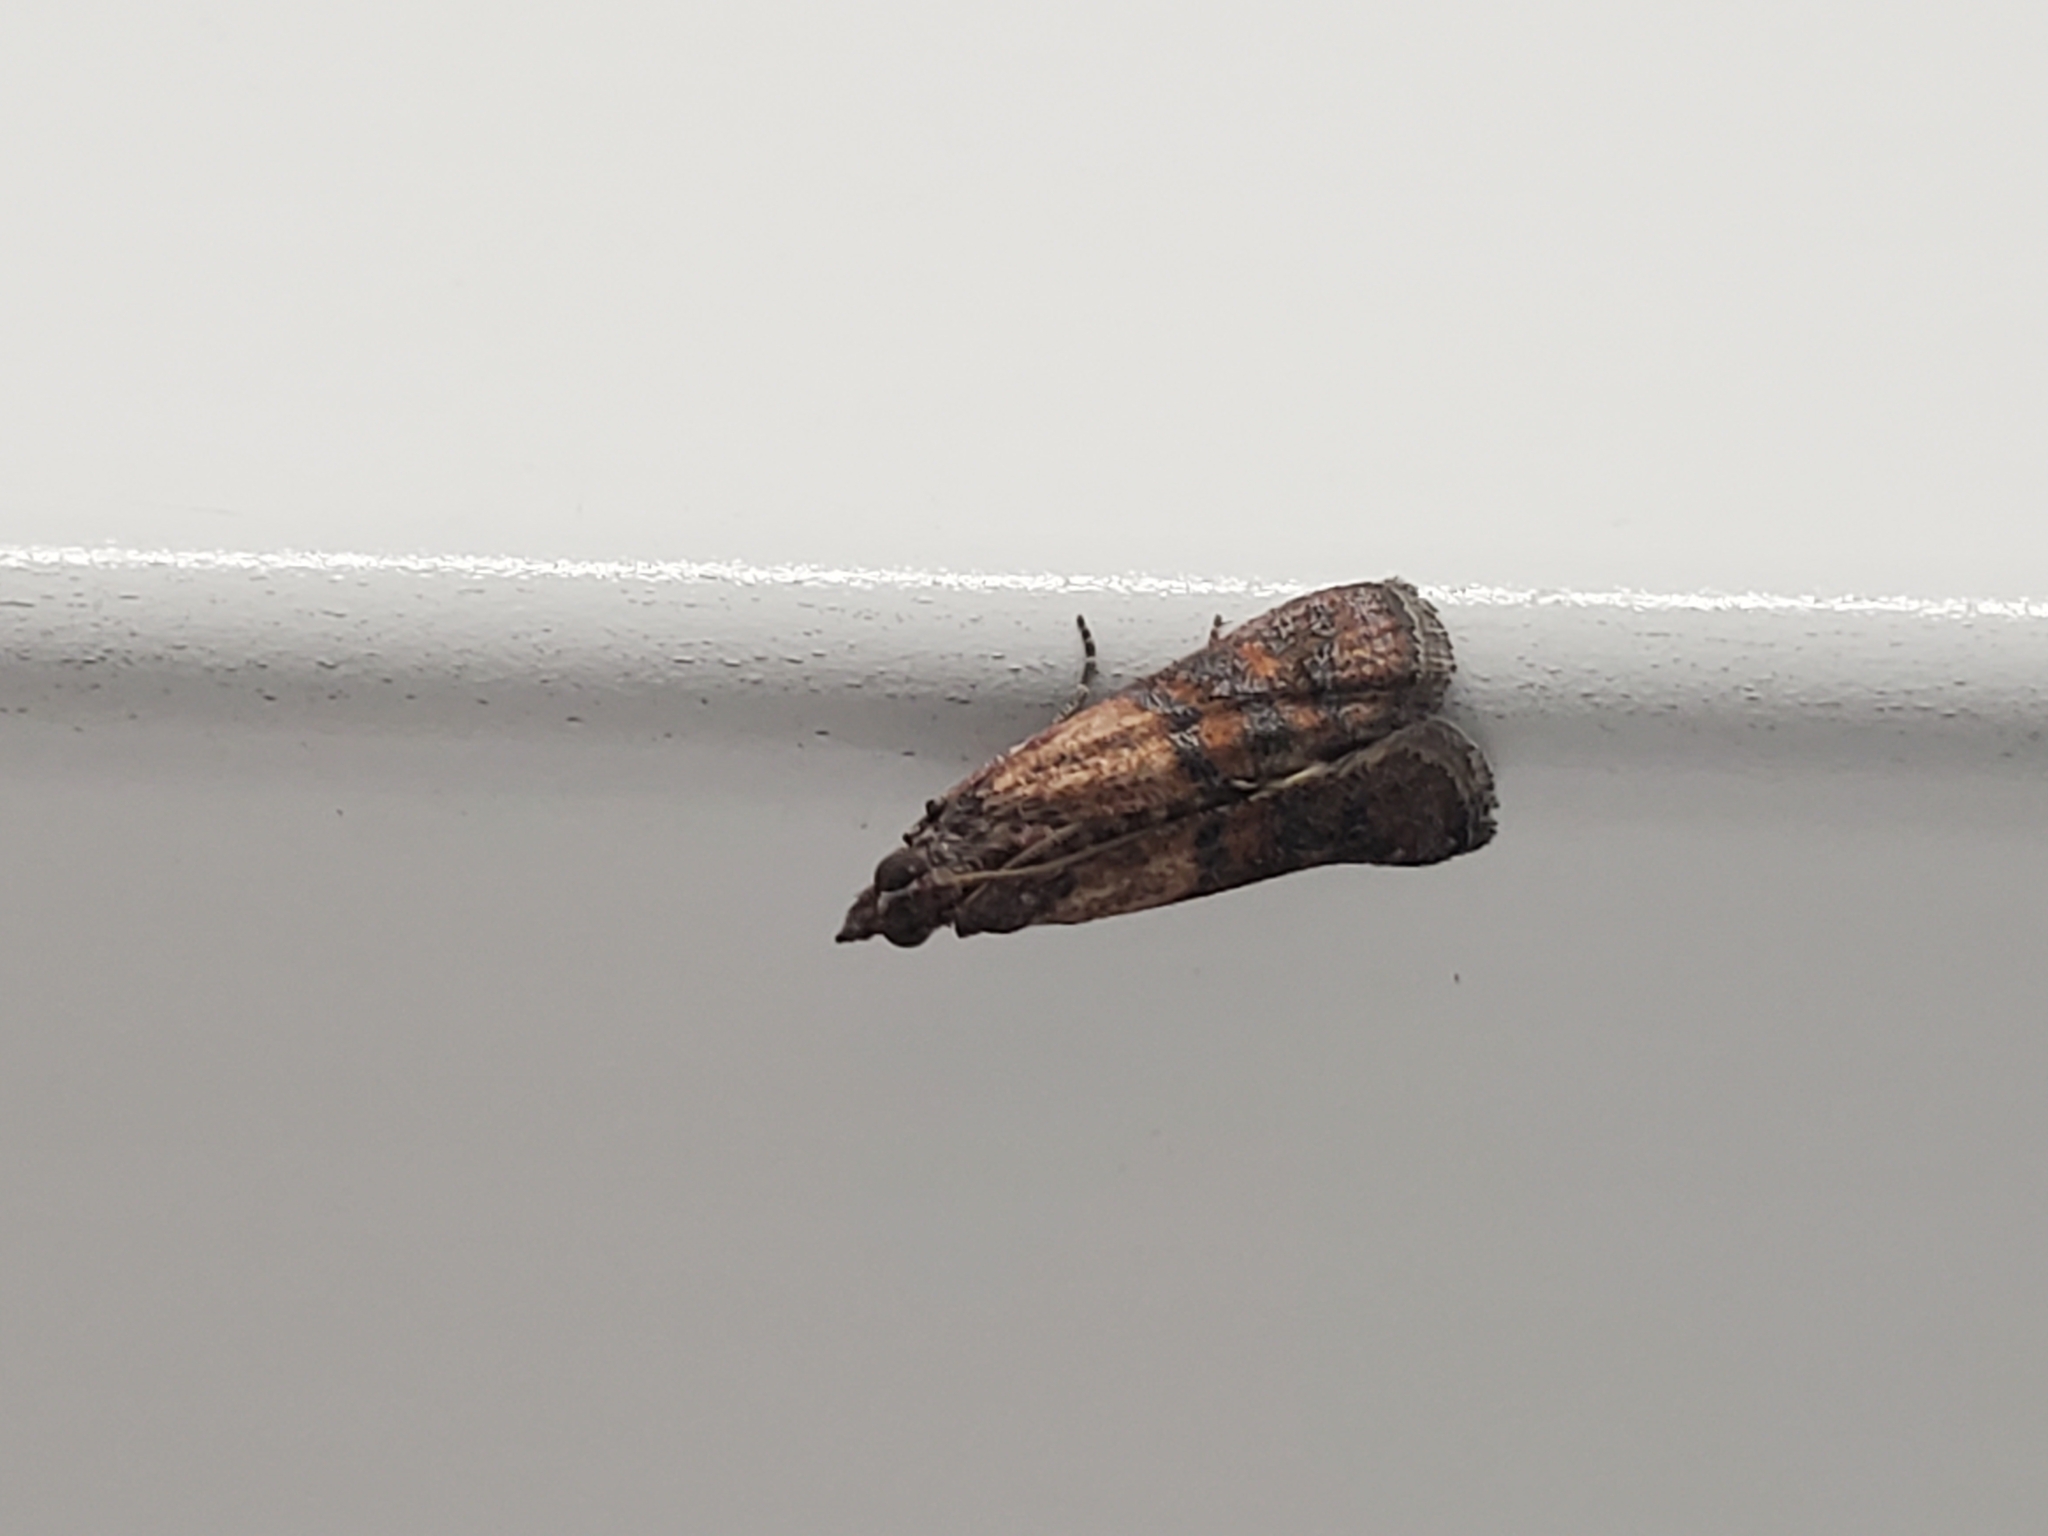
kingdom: Animalia
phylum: Arthropoda
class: Insecta
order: Lepidoptera
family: Pyralidae
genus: Plodia
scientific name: Plodia interpunctella
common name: Indian meal moth
